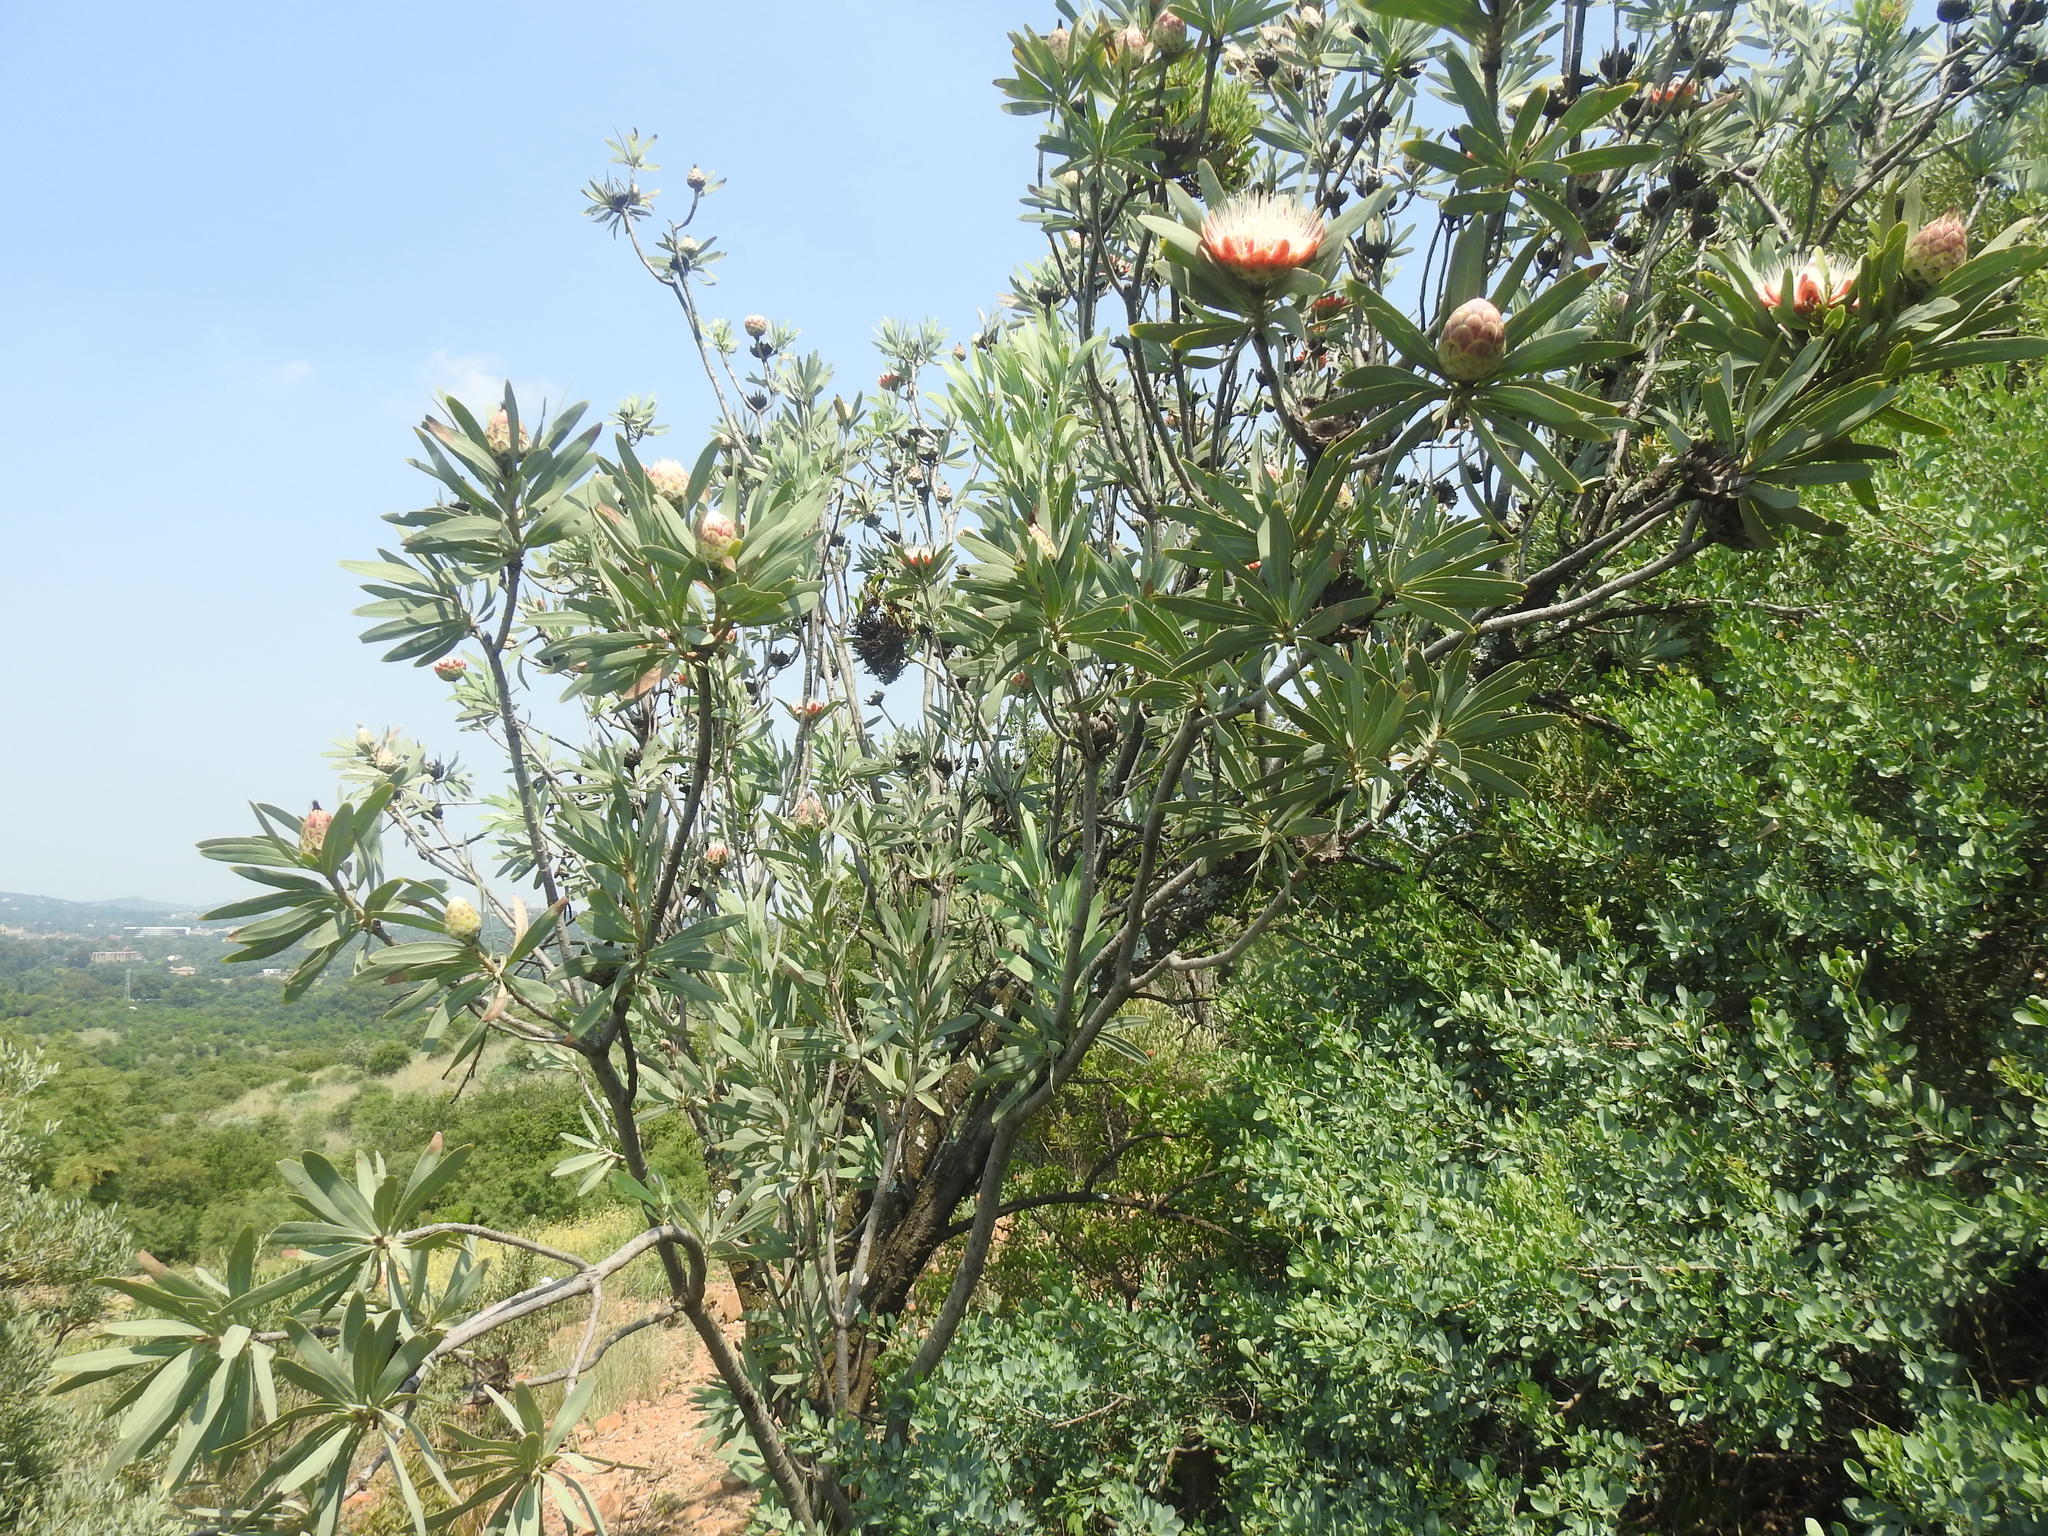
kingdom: Plantae
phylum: Tracheophyta
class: Magnoliopsida
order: Proteales
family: Proteaceae
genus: Protea
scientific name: Protea caffra
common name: Common sugarbush
